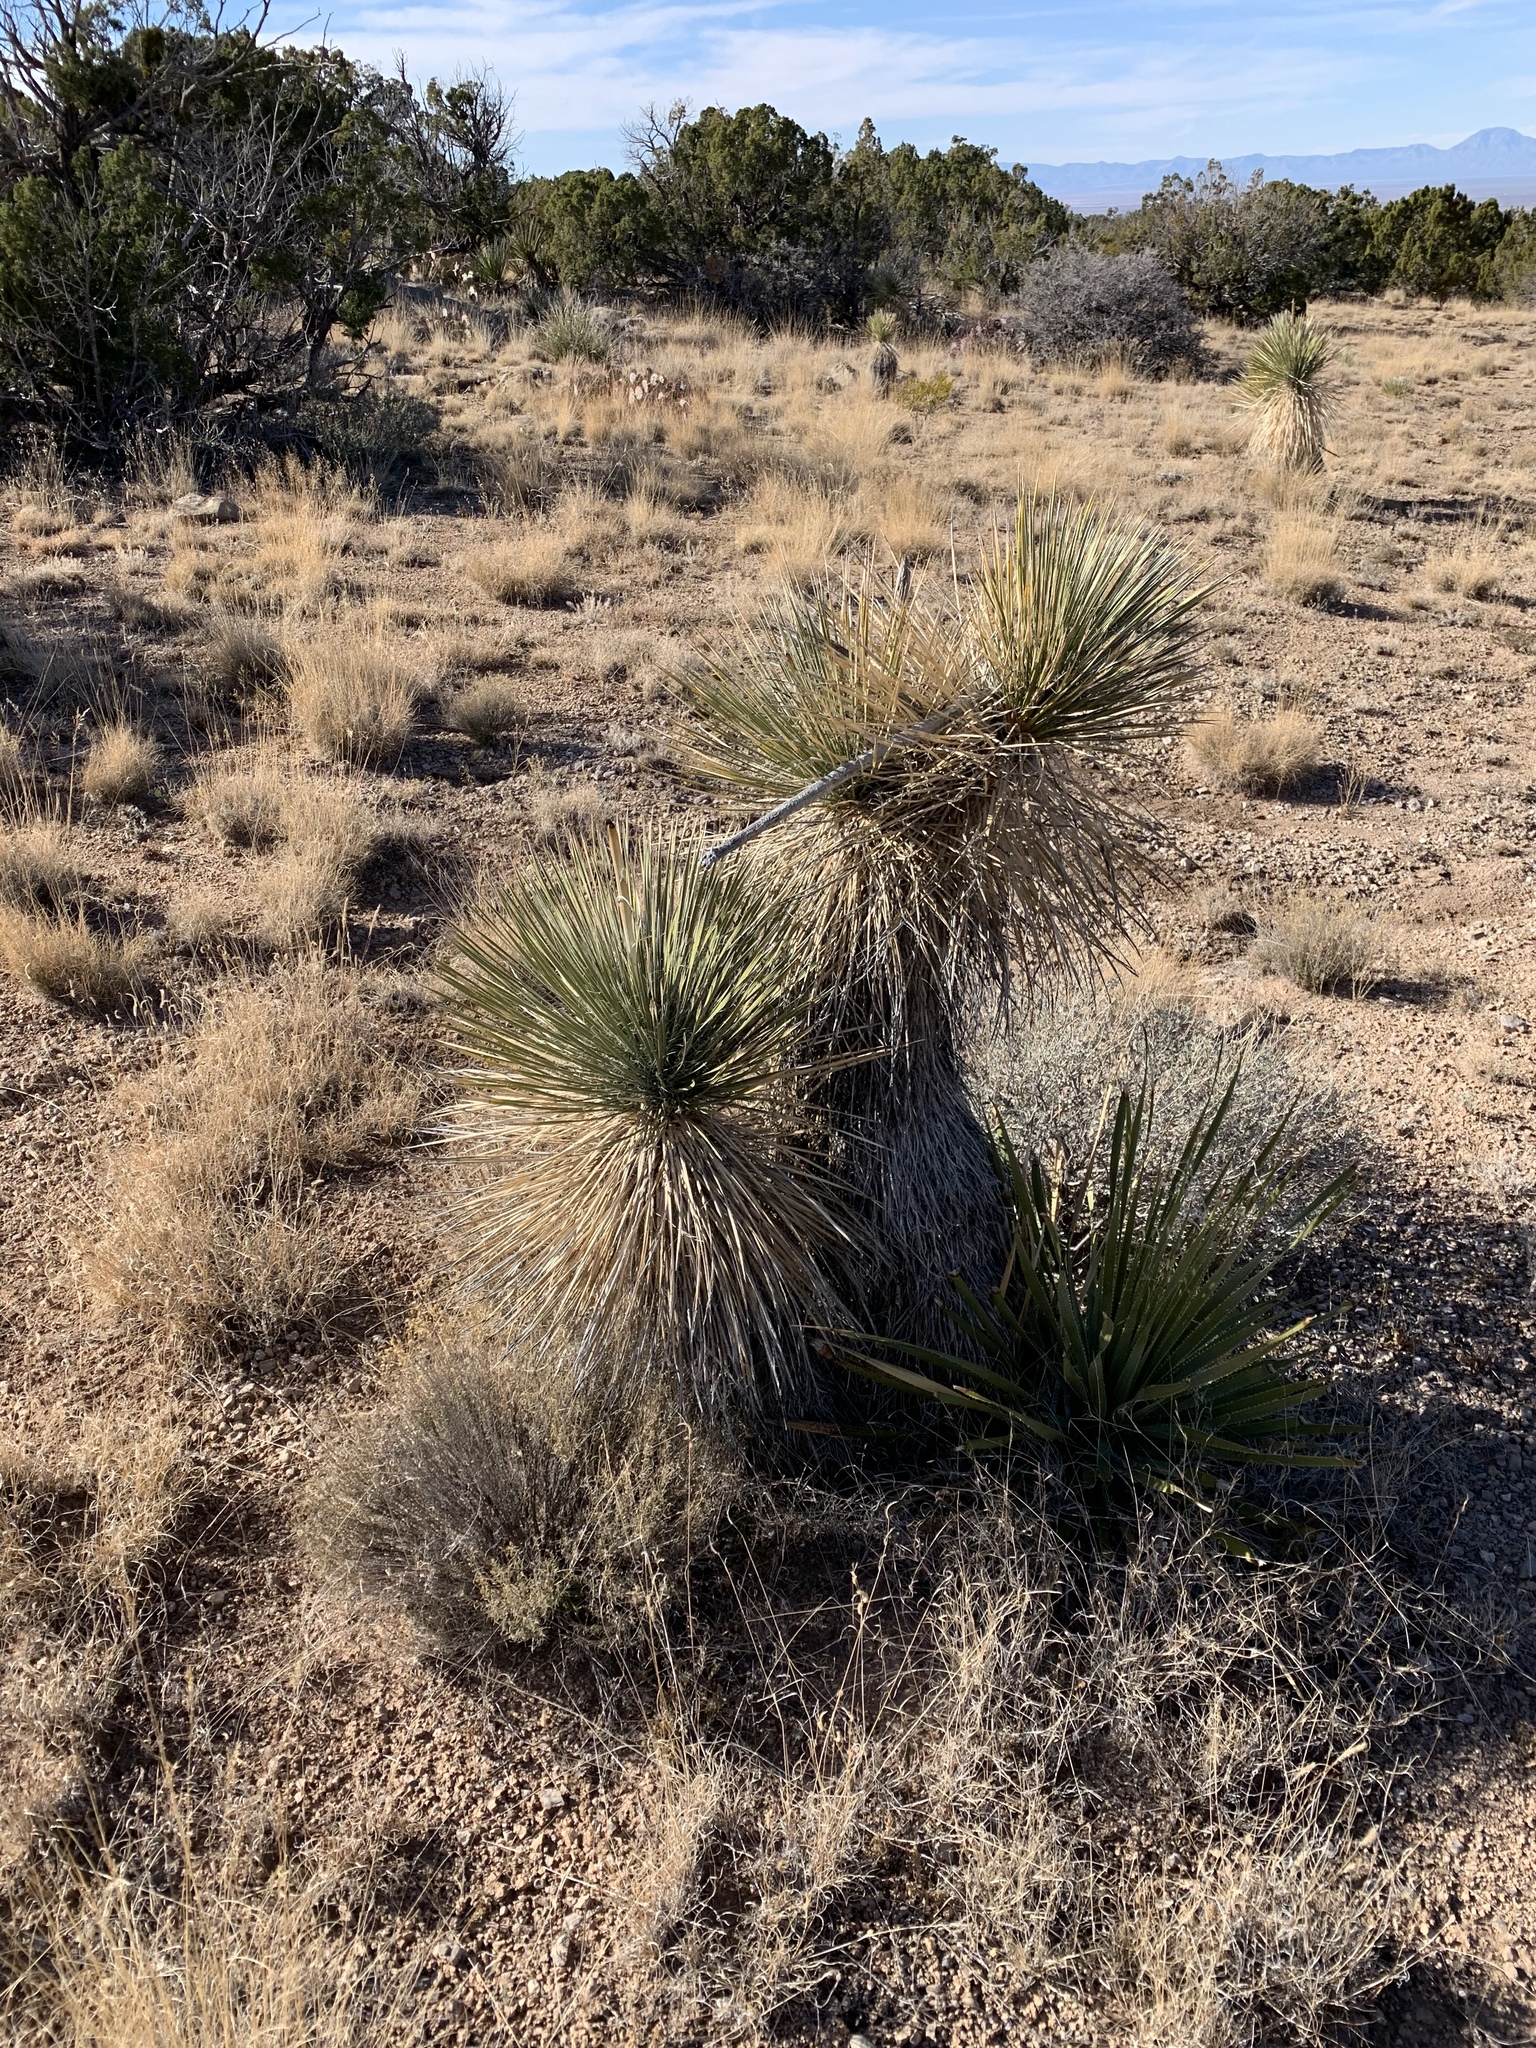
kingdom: Plantae
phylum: Tracheophyta
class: Liliopsida
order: Asparagales
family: Asparagaceae
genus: Yucca
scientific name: Yucca elata
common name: Palmella
